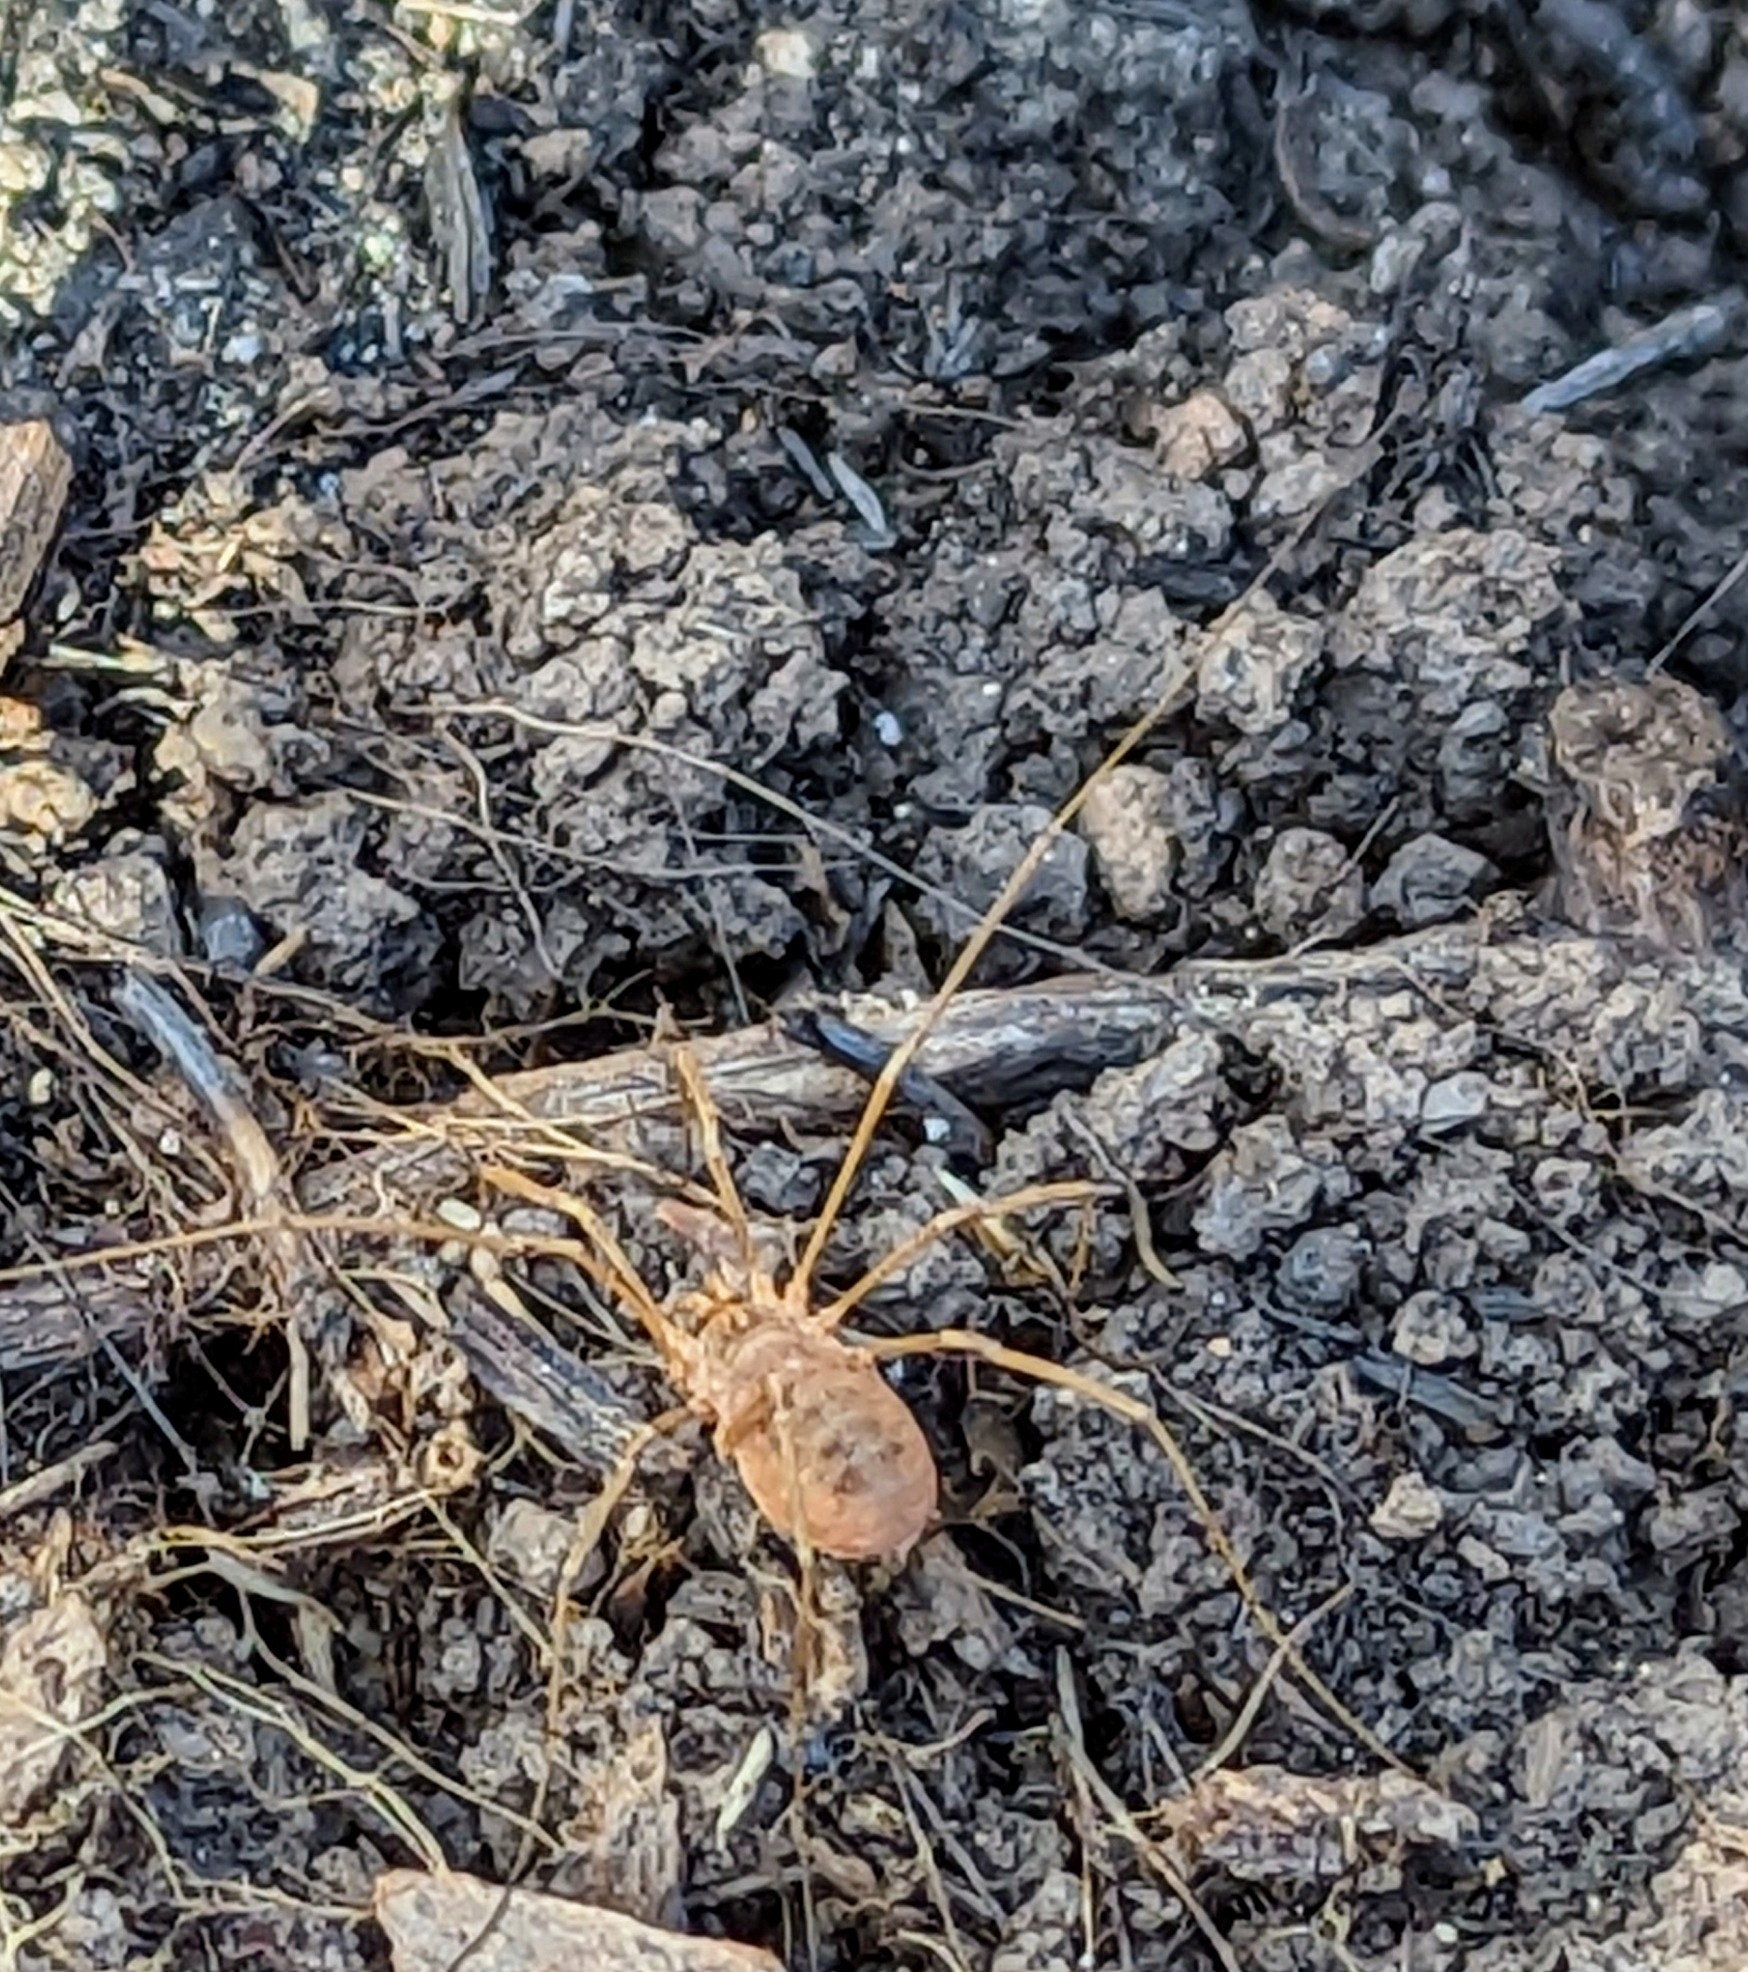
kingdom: Animalia
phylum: Arthropoda
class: Arachnida
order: Opiliones
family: Phalangiidae
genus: Phalangium
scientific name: Phalangium opilio
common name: Daddy longleg
